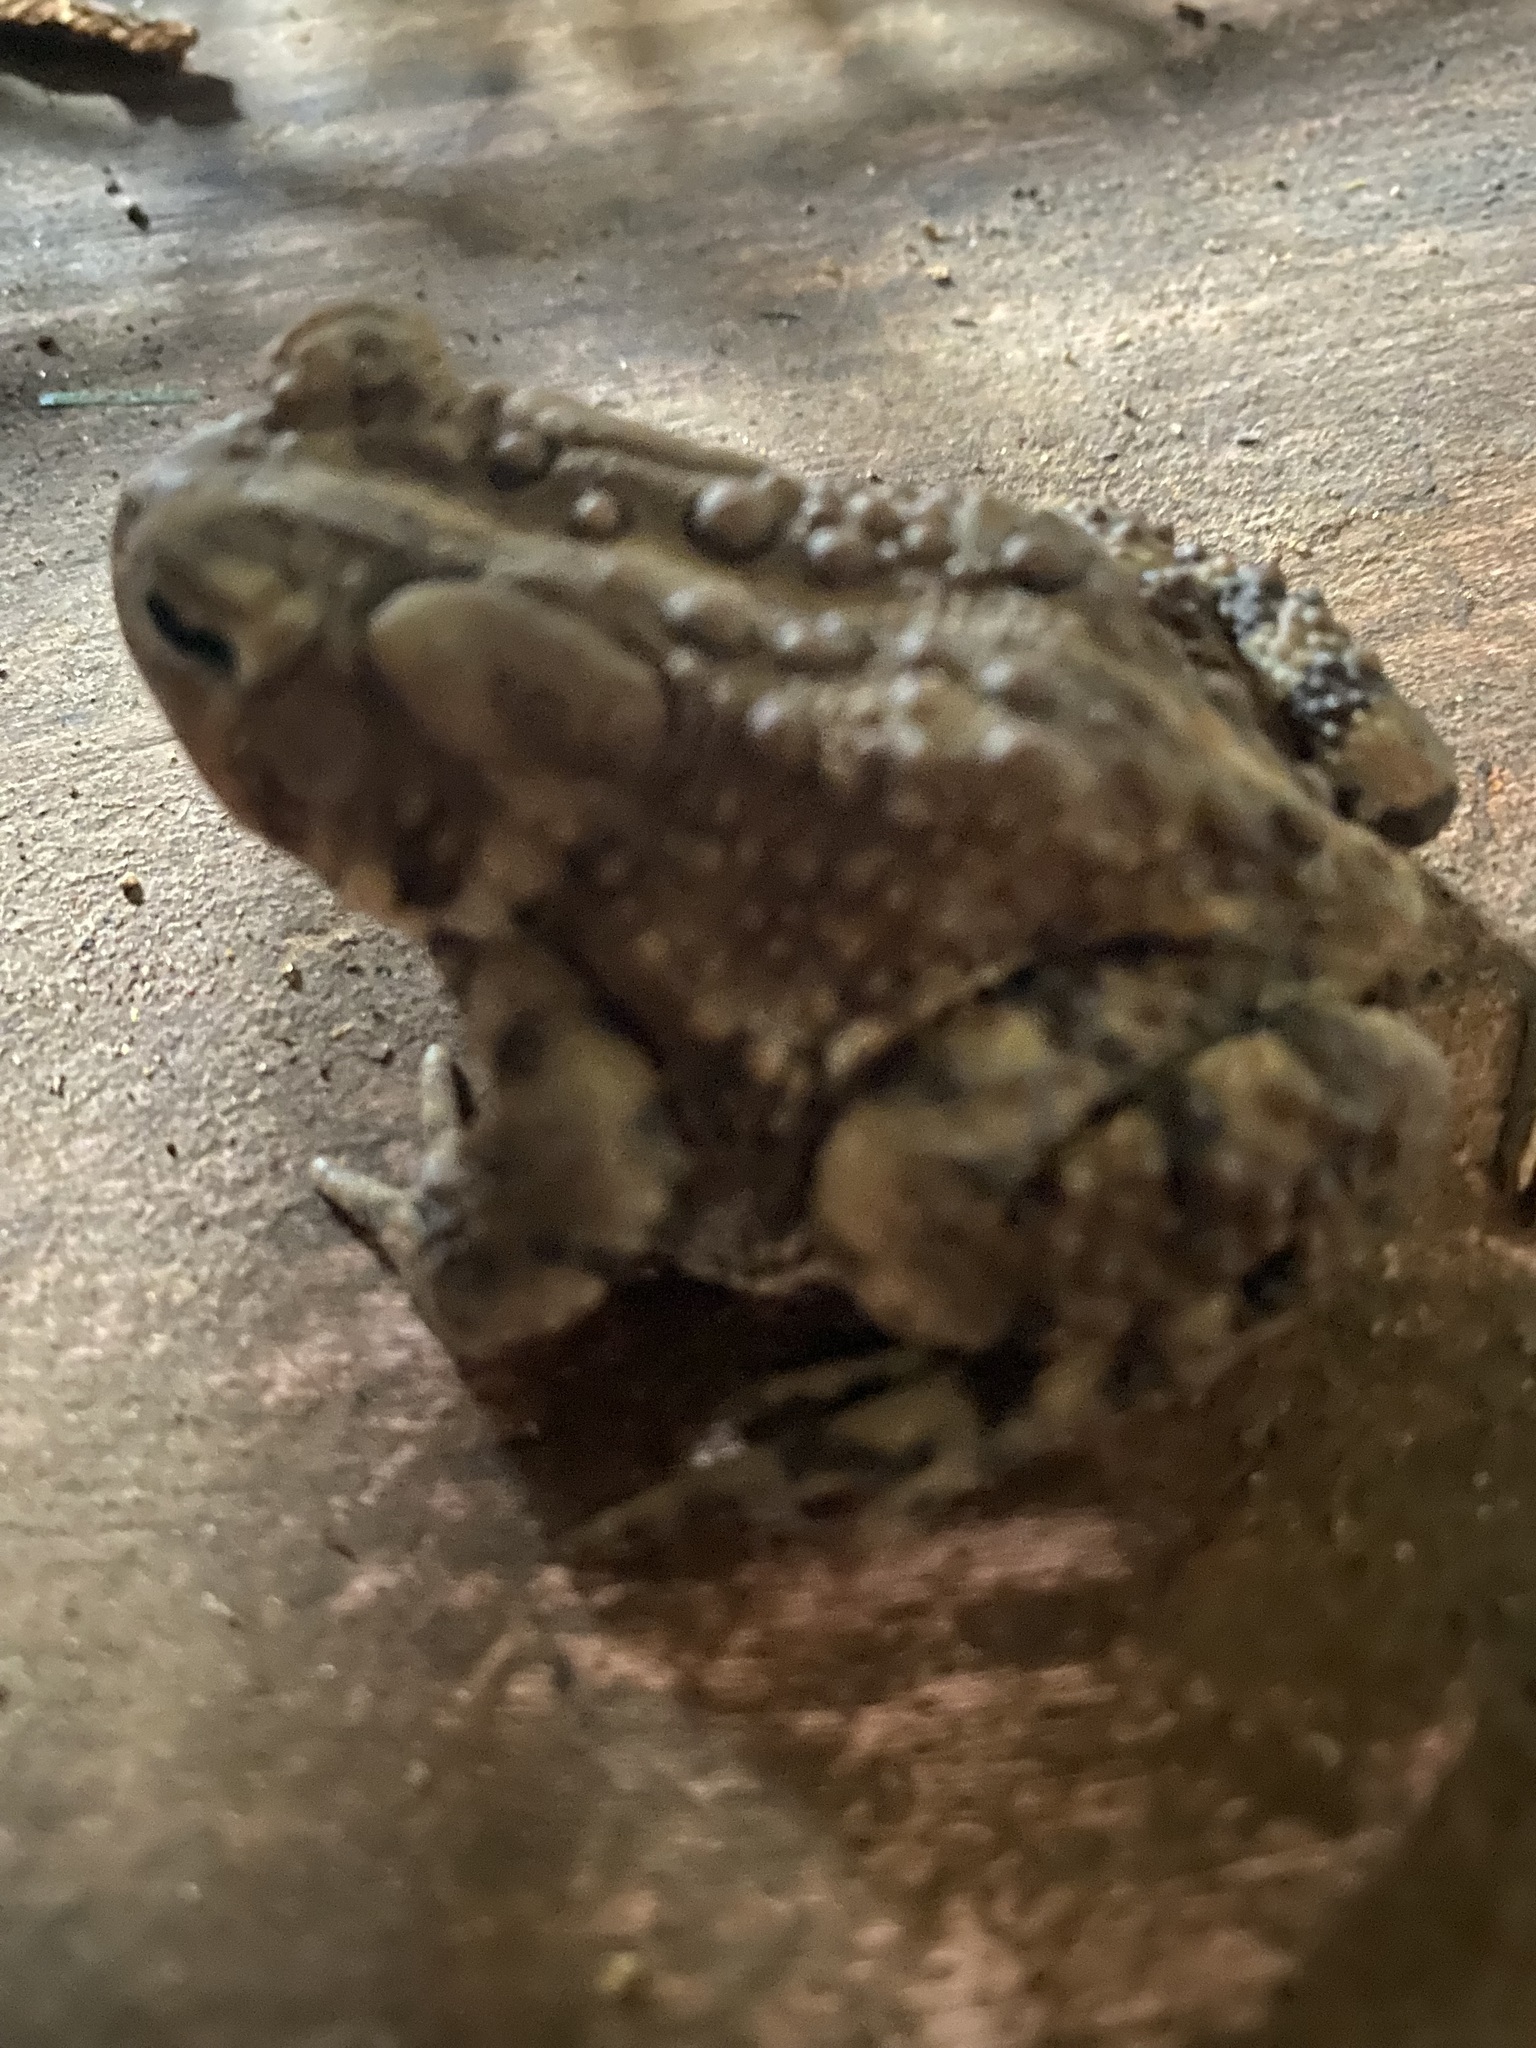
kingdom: Animalia
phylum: Chordata
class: Amphibia
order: Anura
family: Bufonidae
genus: Anaxyrus
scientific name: Anaxyrus americanus
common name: American toad
